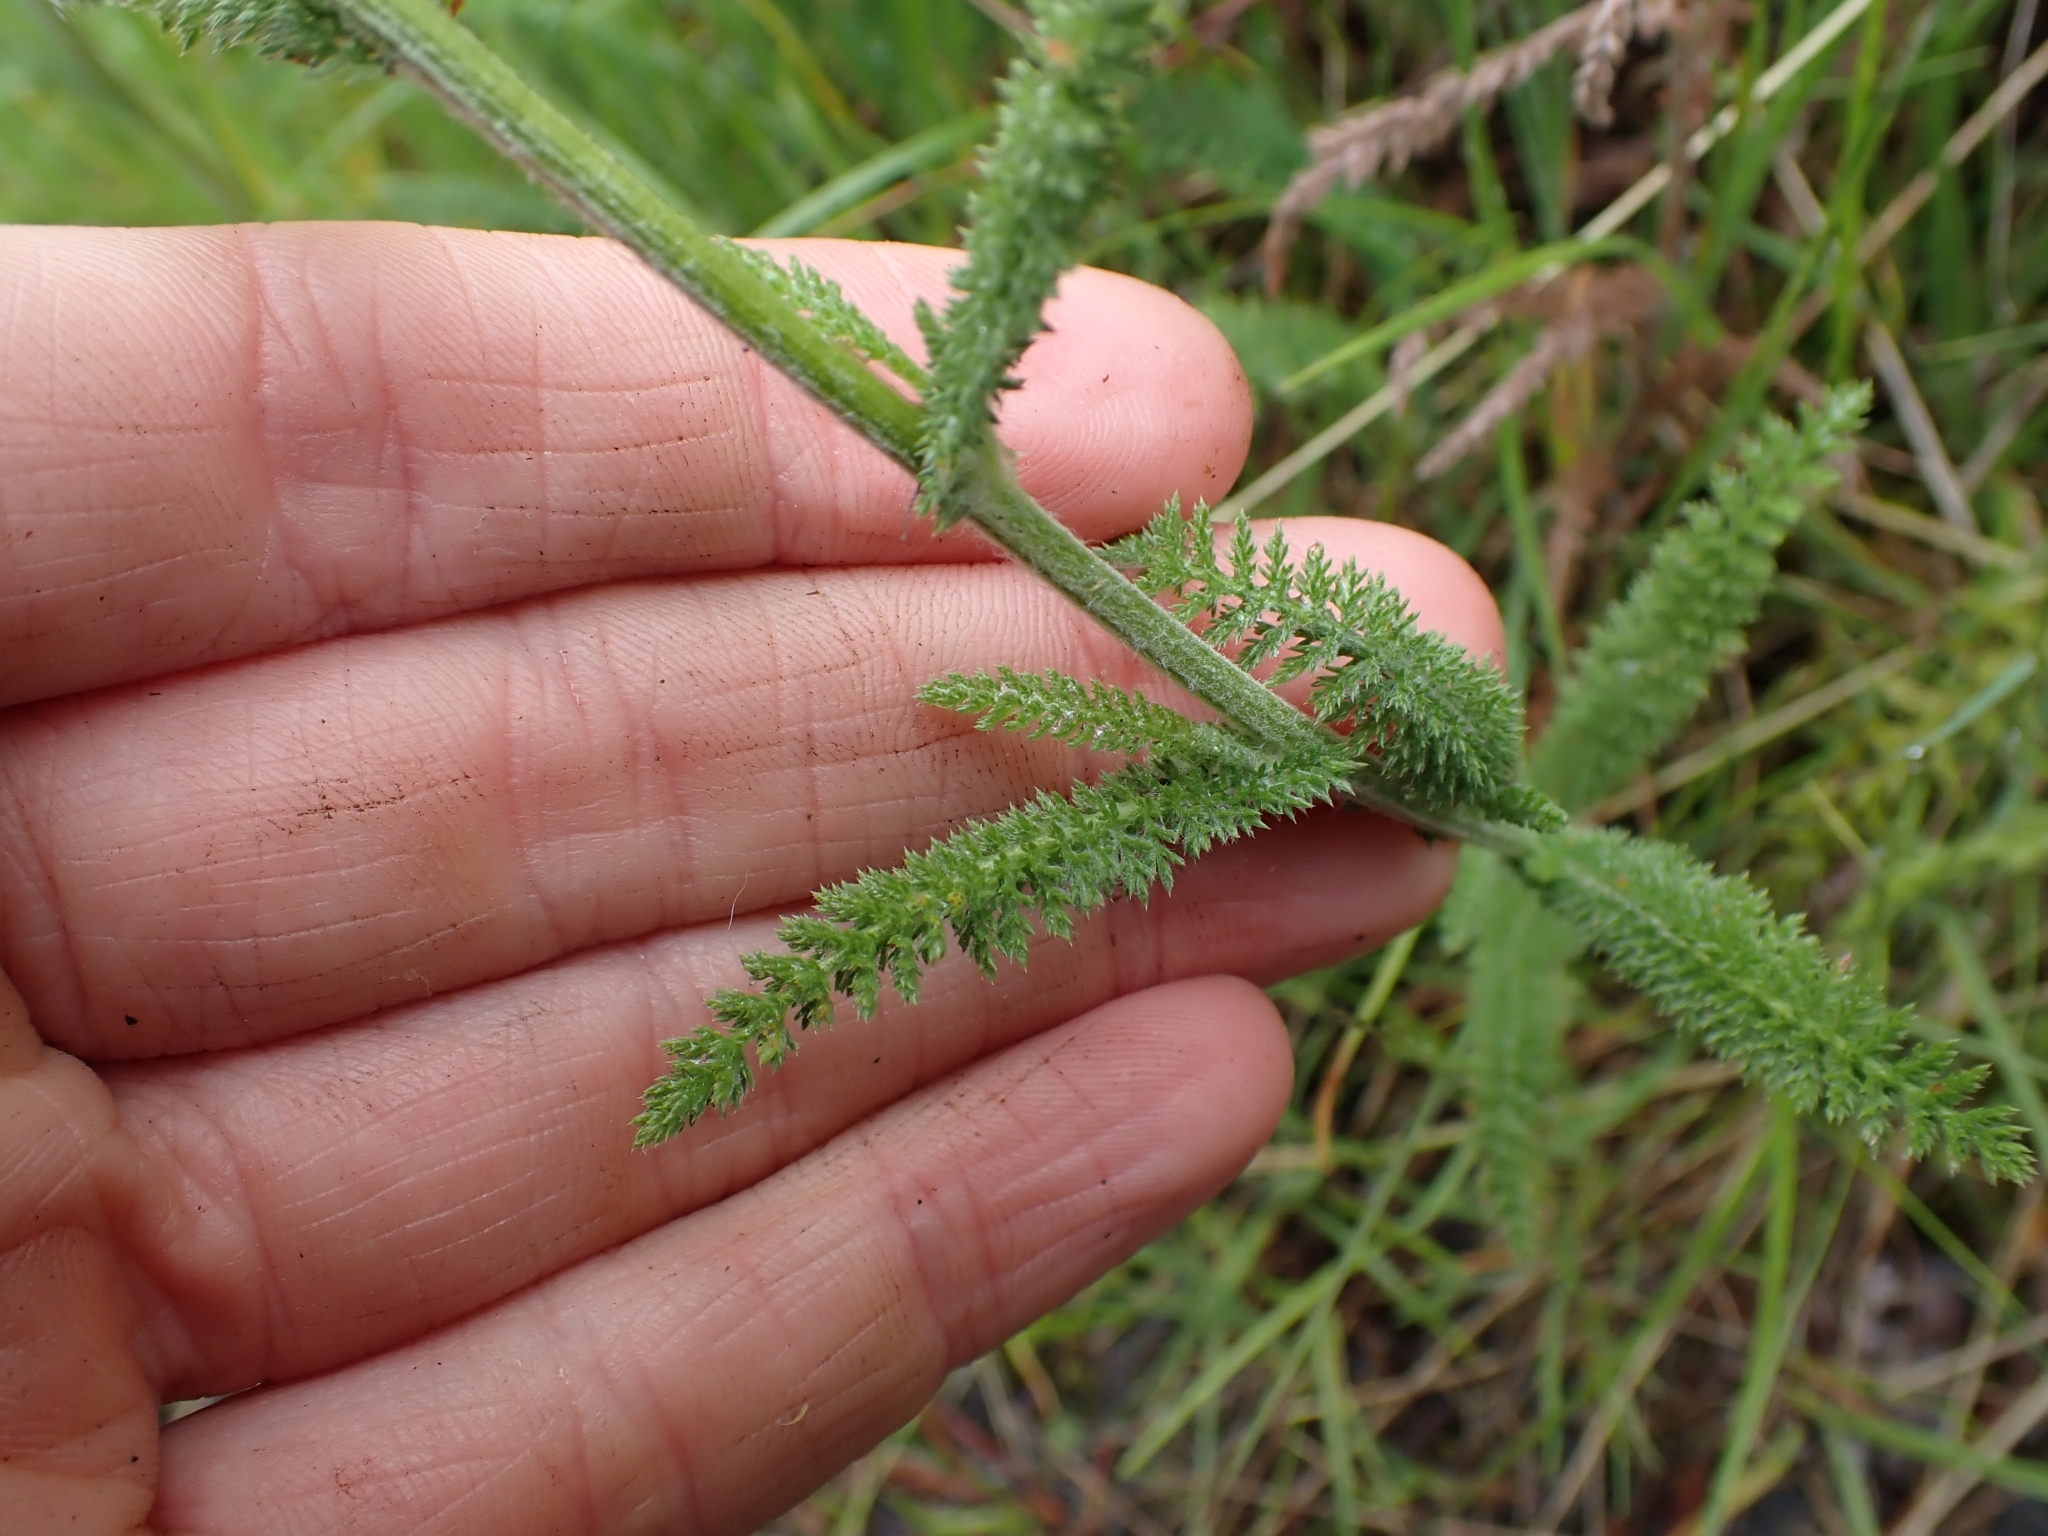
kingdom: Plantae
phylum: Tracheophyta
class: Magnoliopsida
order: Asterales
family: Asteraceae
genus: Achillea
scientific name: Achillea millefolium
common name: Yarrow
